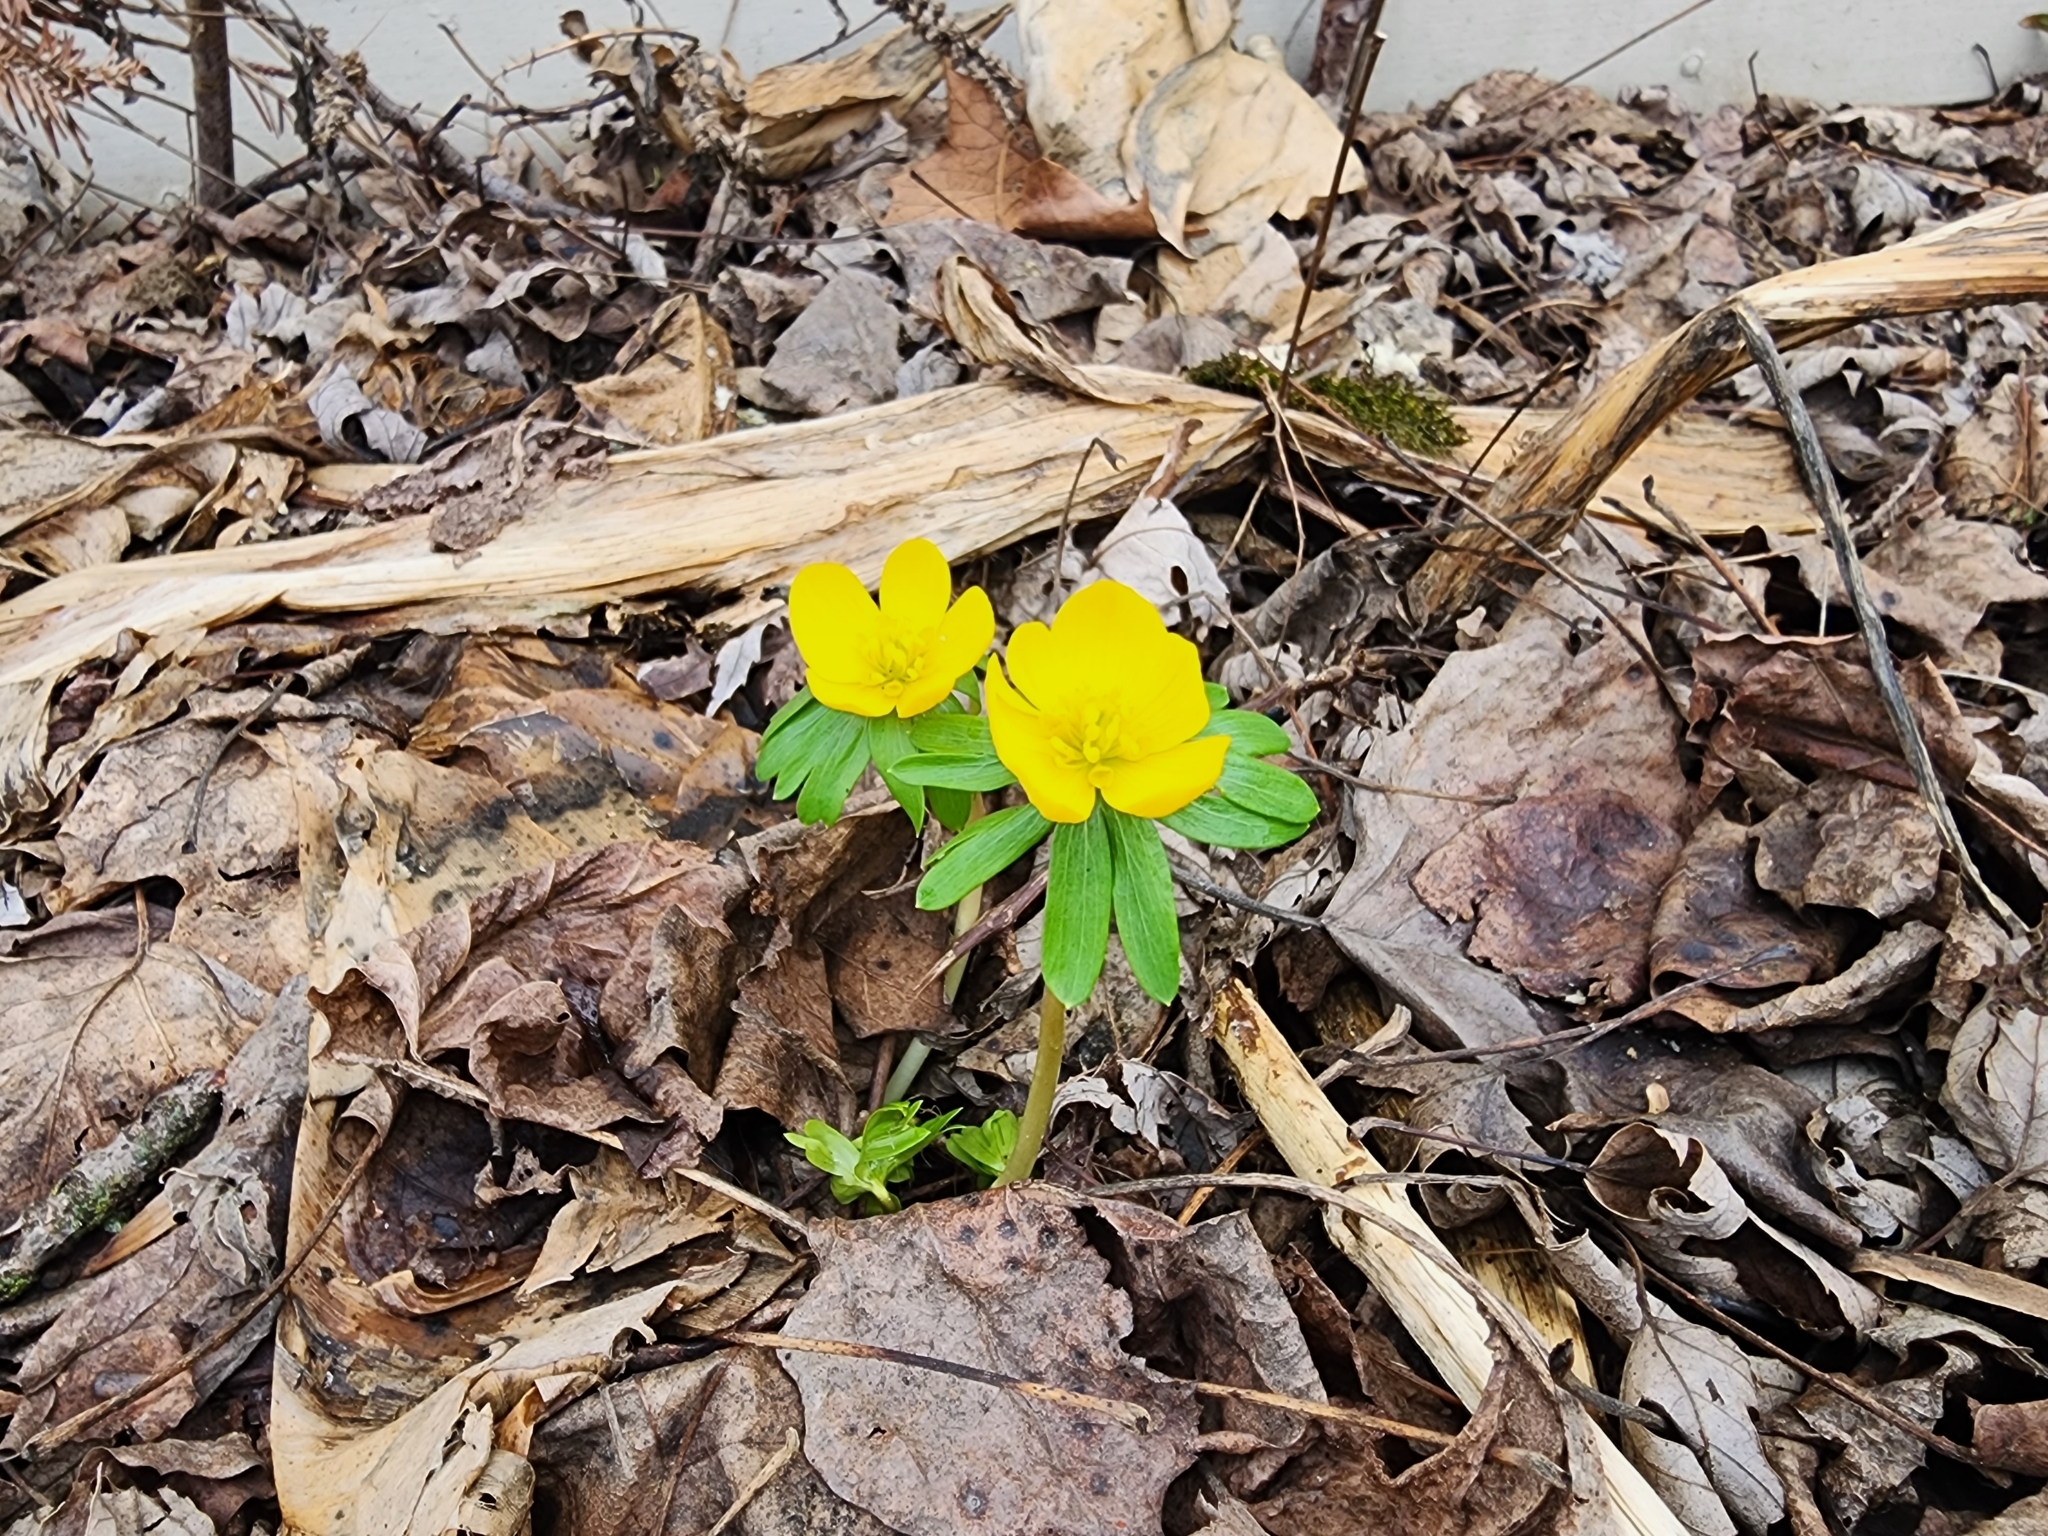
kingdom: Plantae
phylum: Tracheophyta
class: Magnoliopsida
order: Ranunculales
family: Ranunculaceae
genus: Eranthis
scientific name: Eranthis hyemalis
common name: Winter aconite
